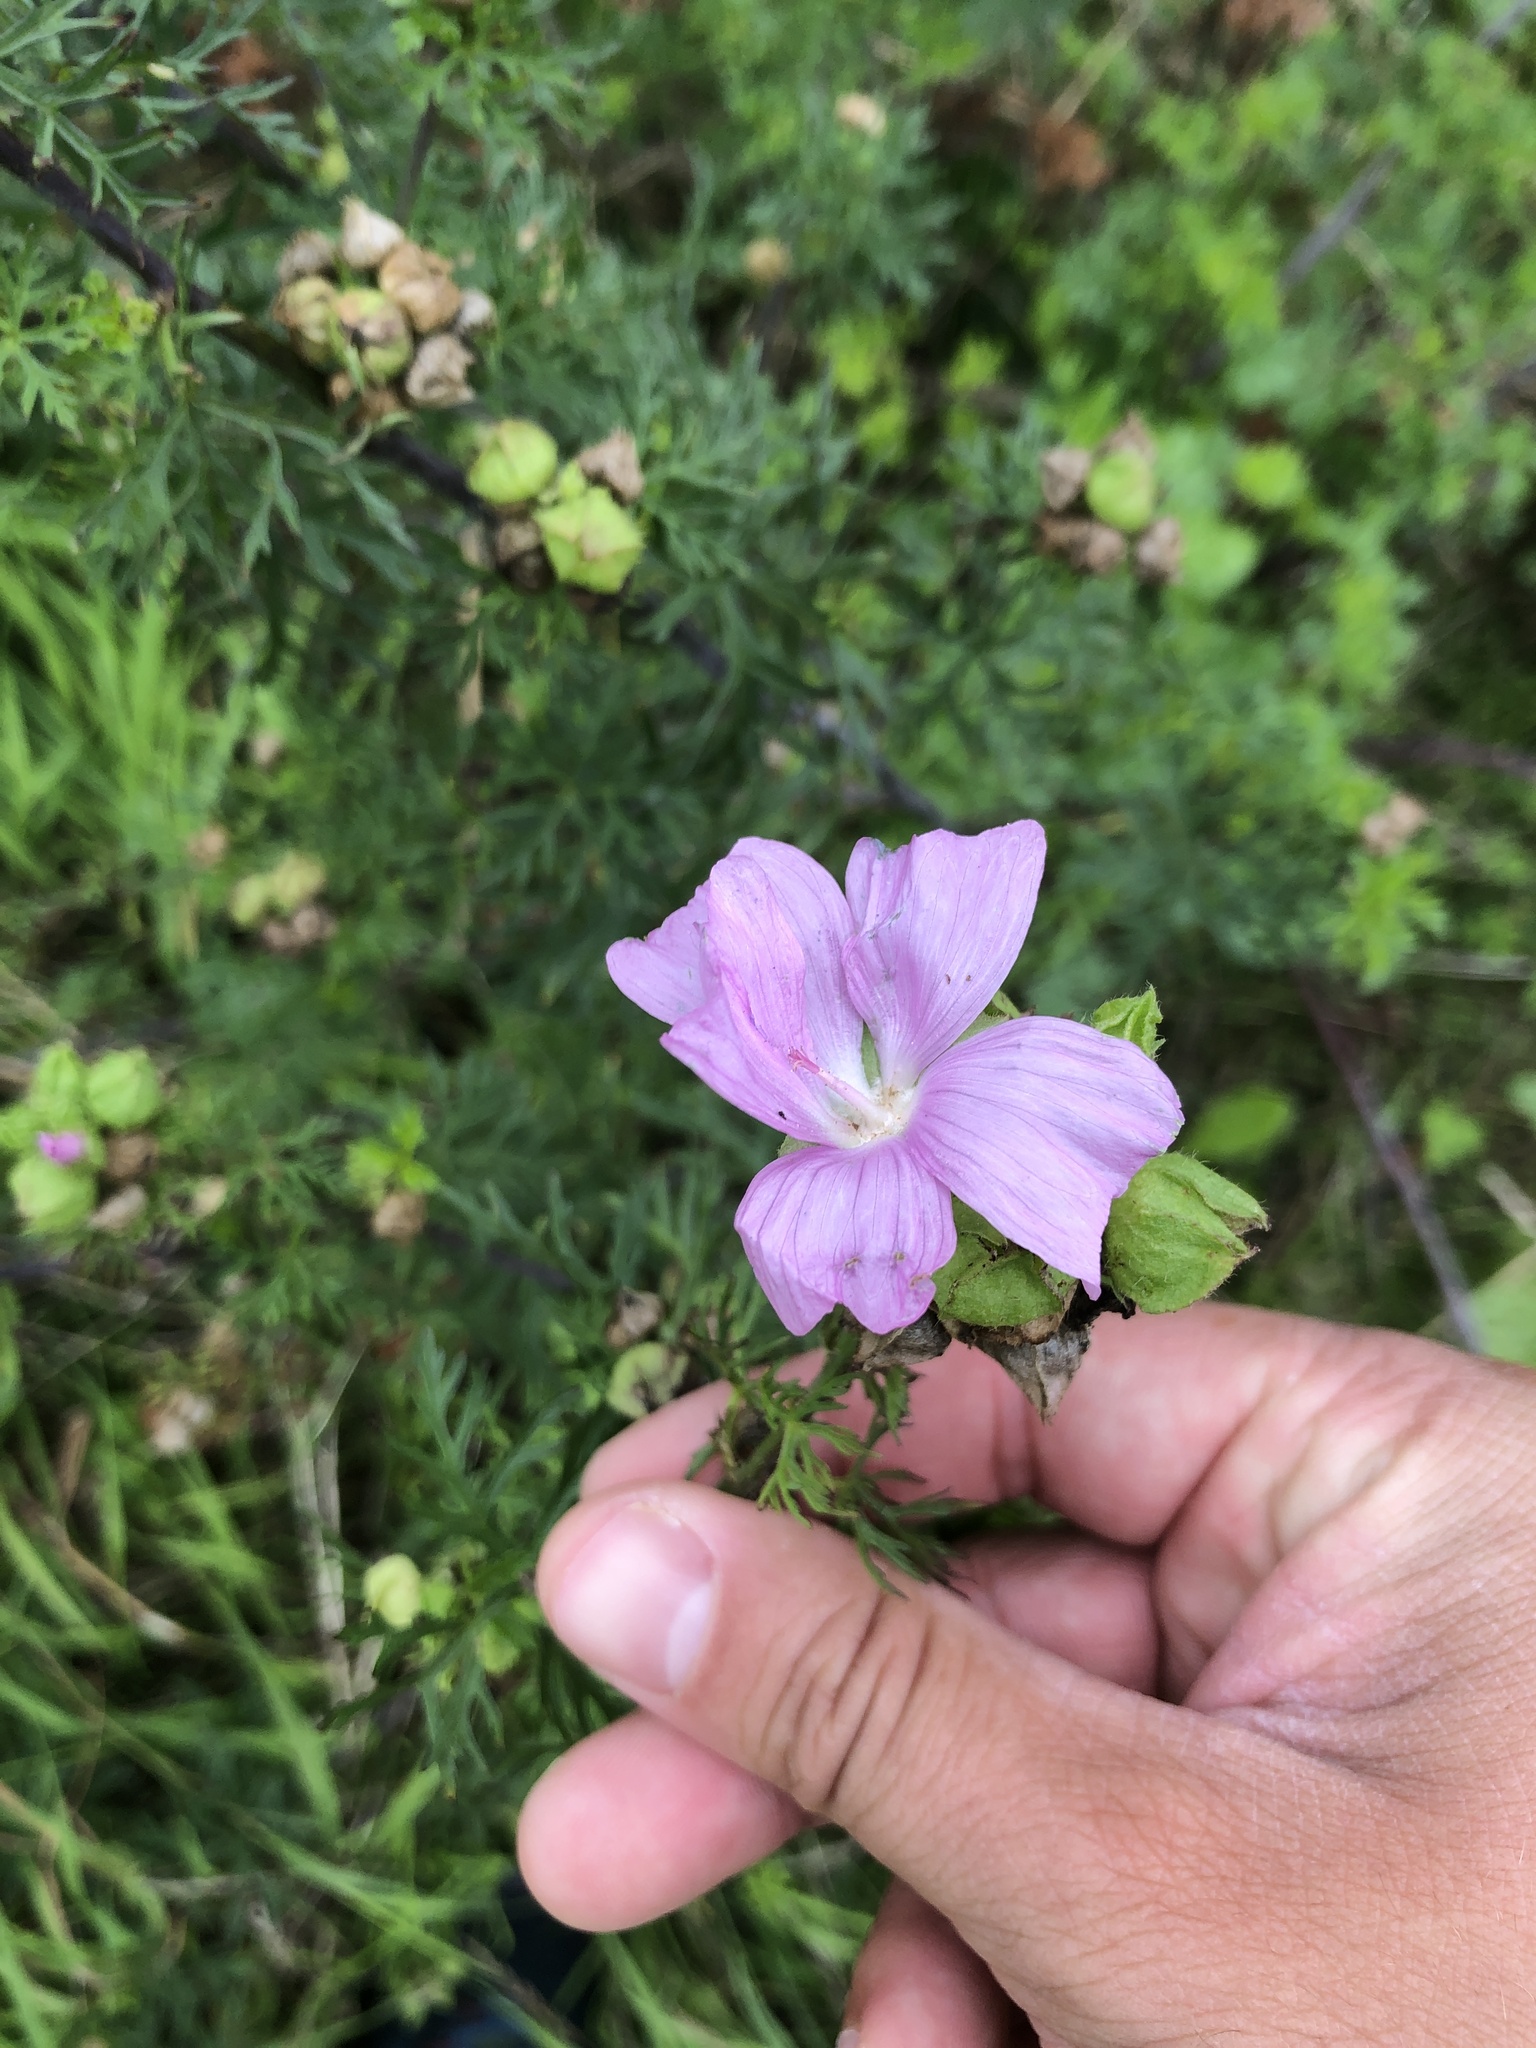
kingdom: Plantae
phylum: Tracheophyta
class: Magnoliopsida
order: Malvales
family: Malvaceae
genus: Malva
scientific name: Malva moschata
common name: Musk mallow
